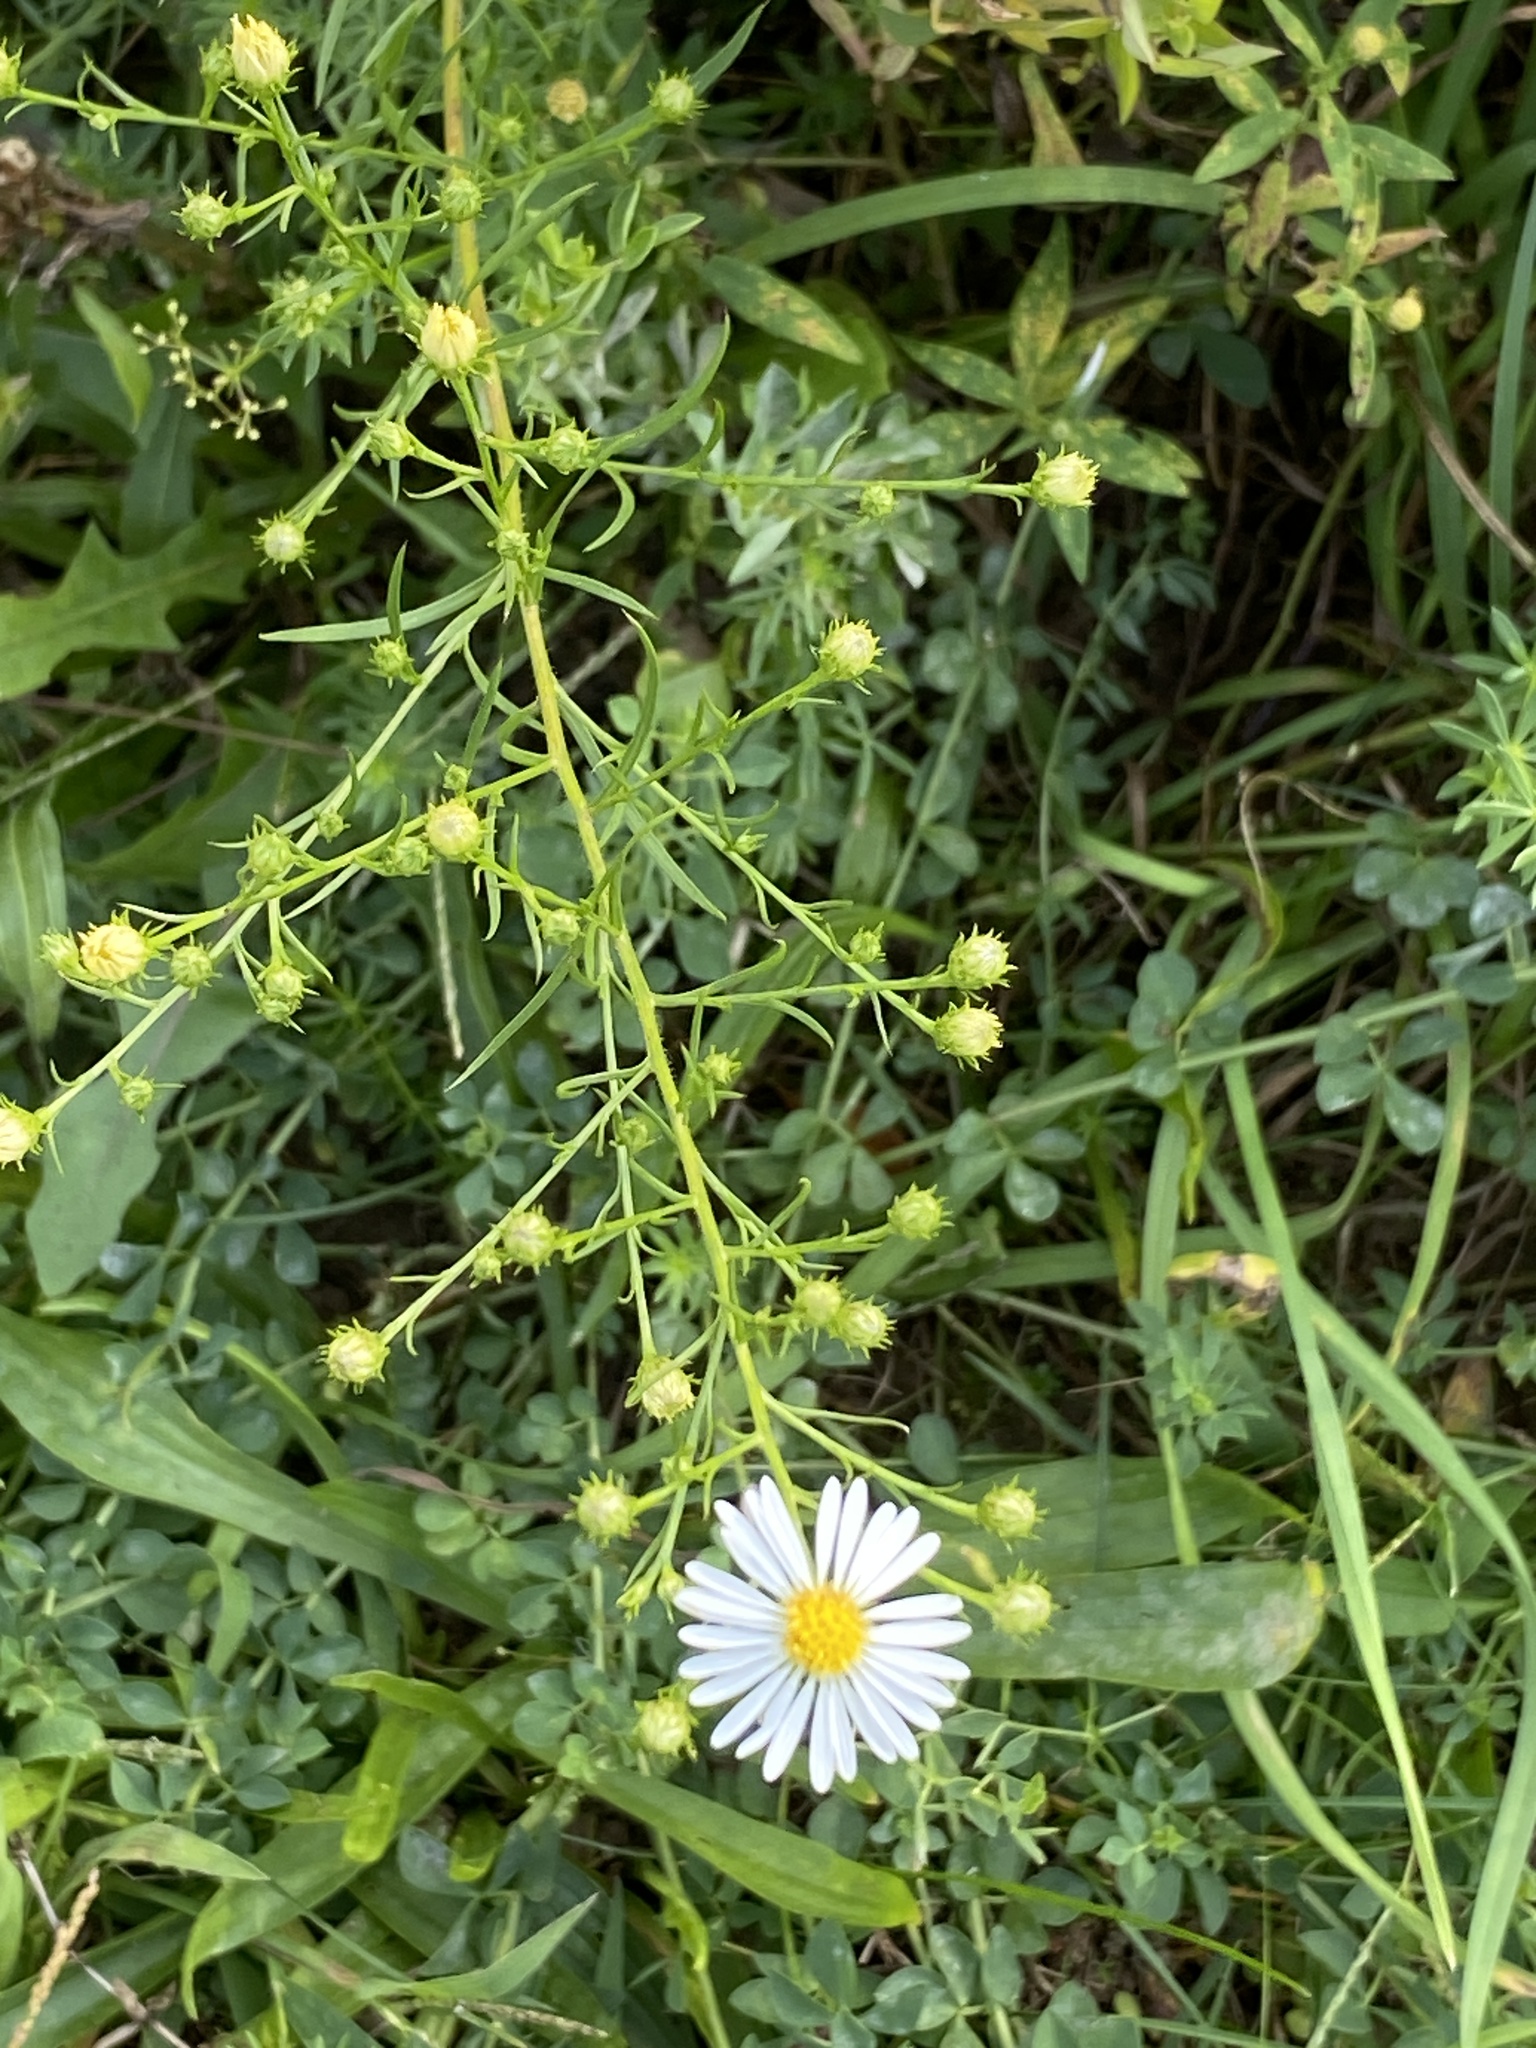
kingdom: Plantae
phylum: Tracheophyta
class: Magnoliopsida
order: Asterales
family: Asteraceae
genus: Symphyotrichum
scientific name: Symphyotrichum pilosum
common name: Awl aster
